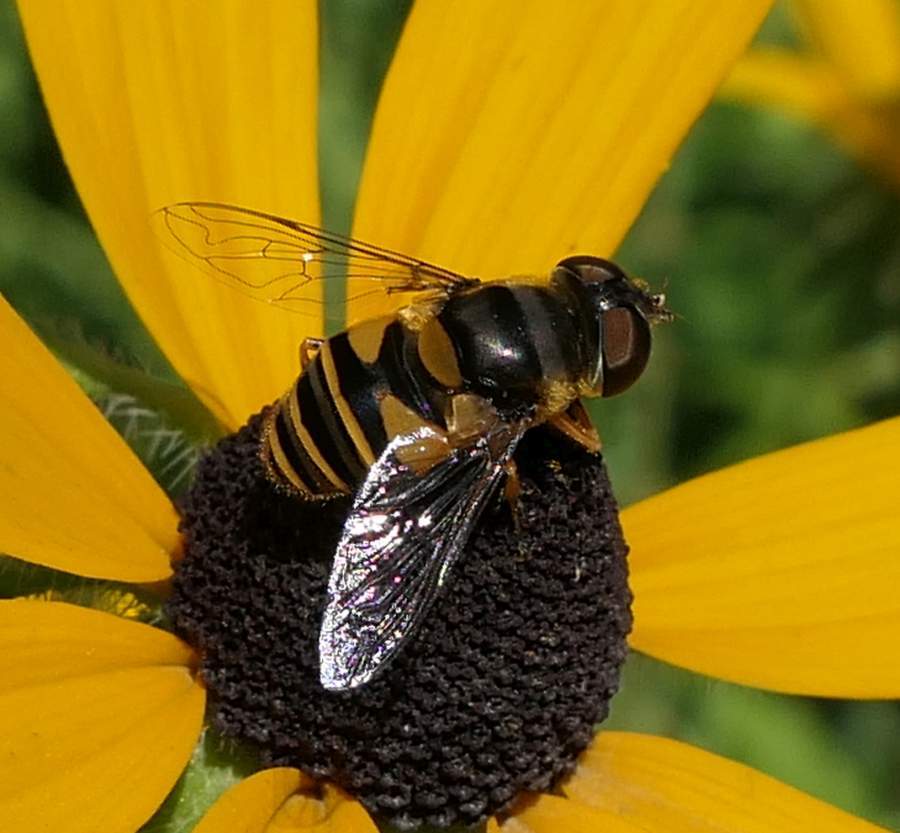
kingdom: Animalia
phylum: Arthropoda
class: Insecta
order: Diptera
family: Syrphidae
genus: Eristalis
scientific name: Eristalis transversa
